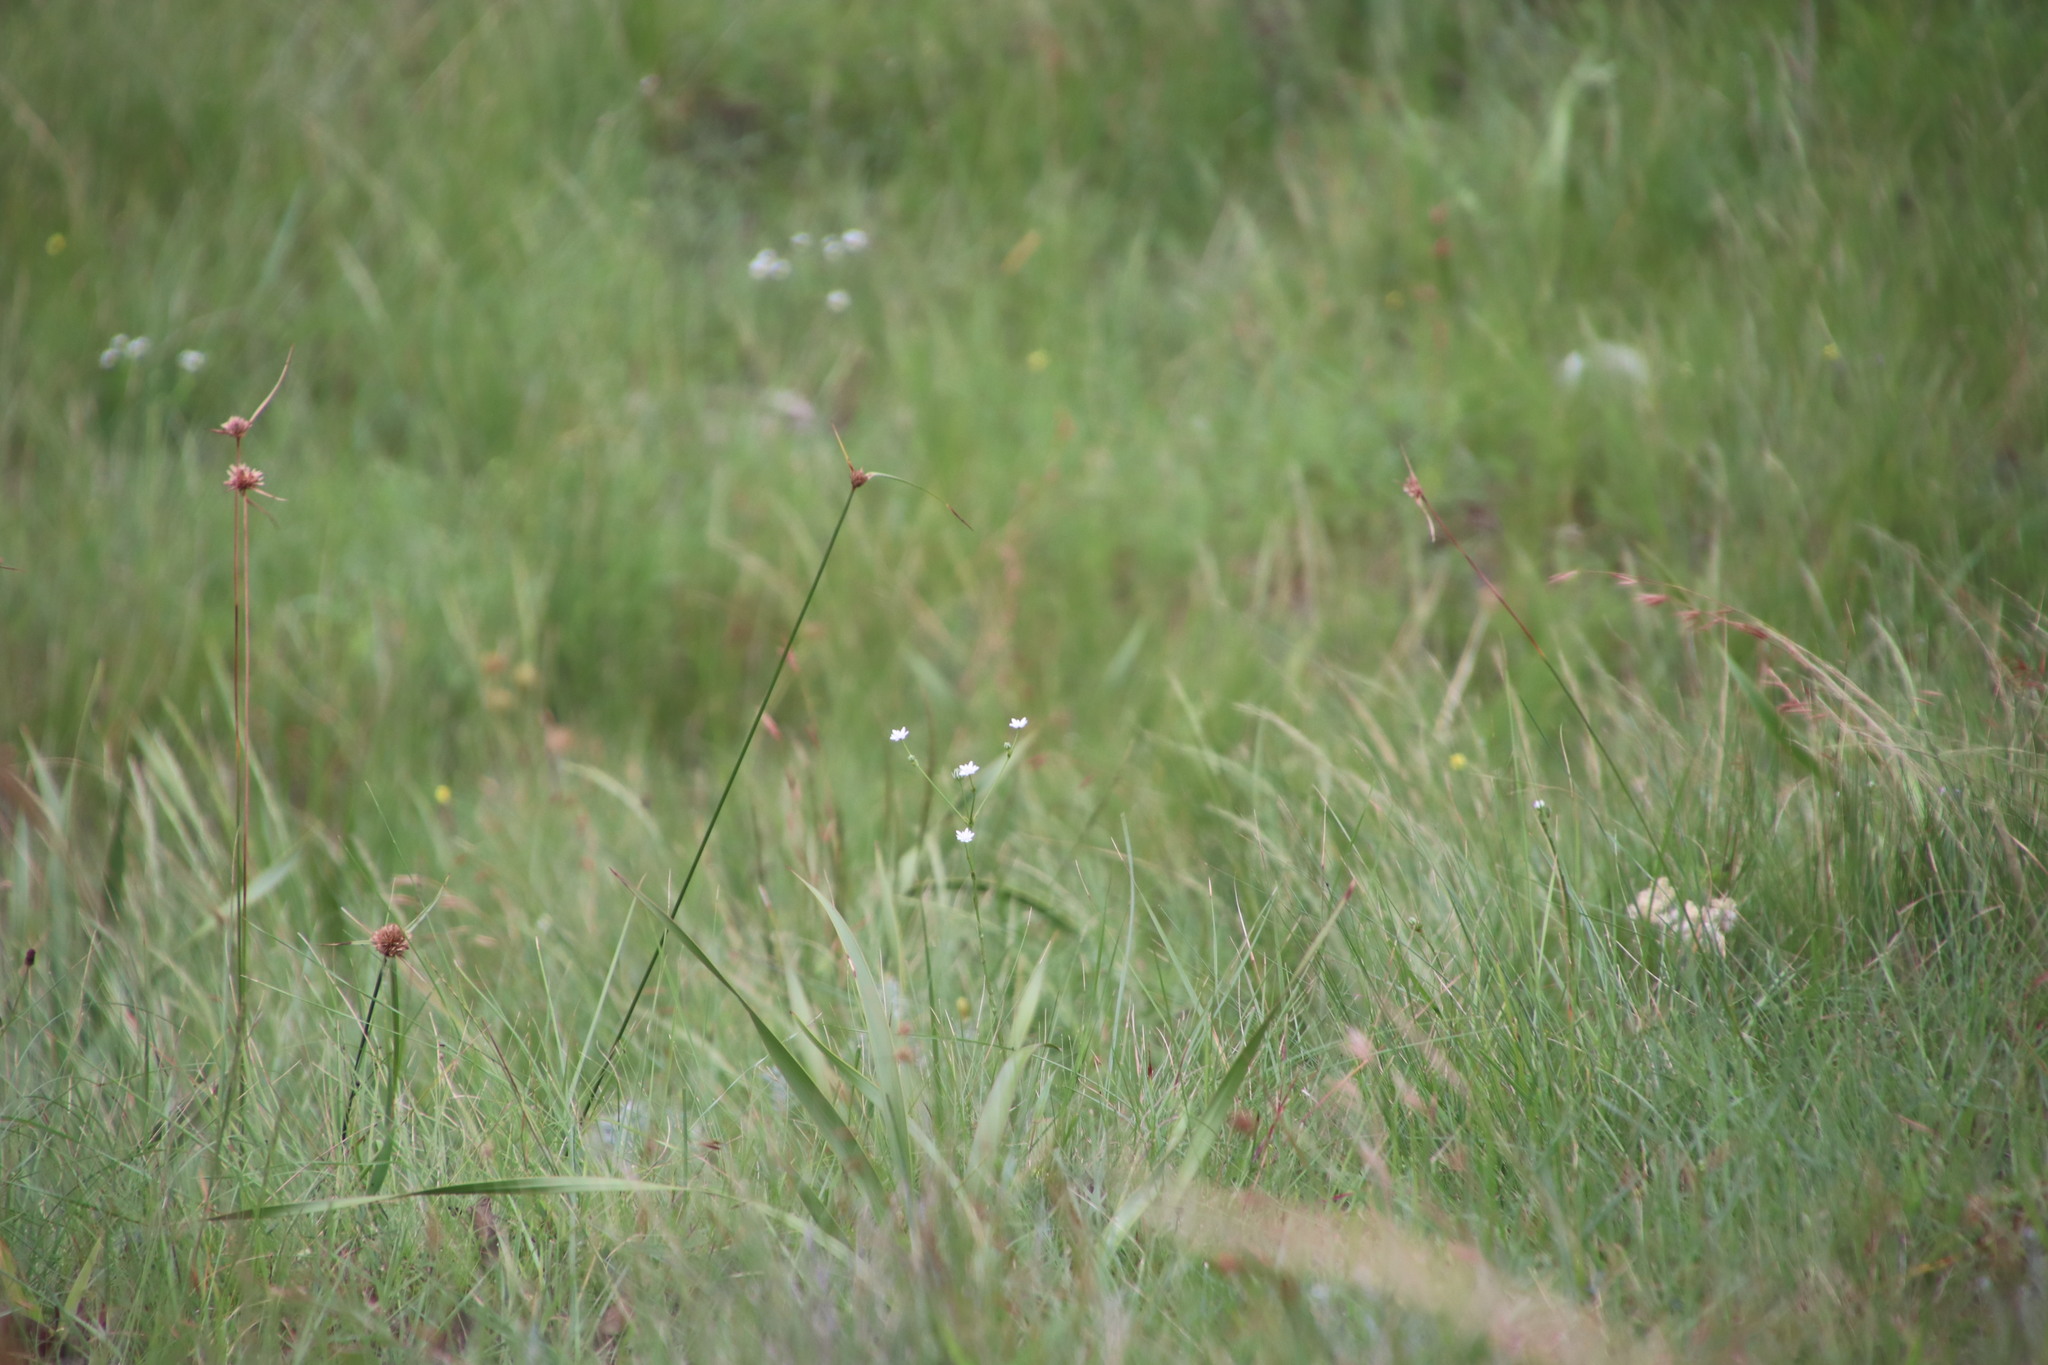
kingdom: Plantae
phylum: Tracheophyta
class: Magnoliopsida
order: Apiales
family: Apiaceae
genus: Alepidea
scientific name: Alepidea peduncularis
